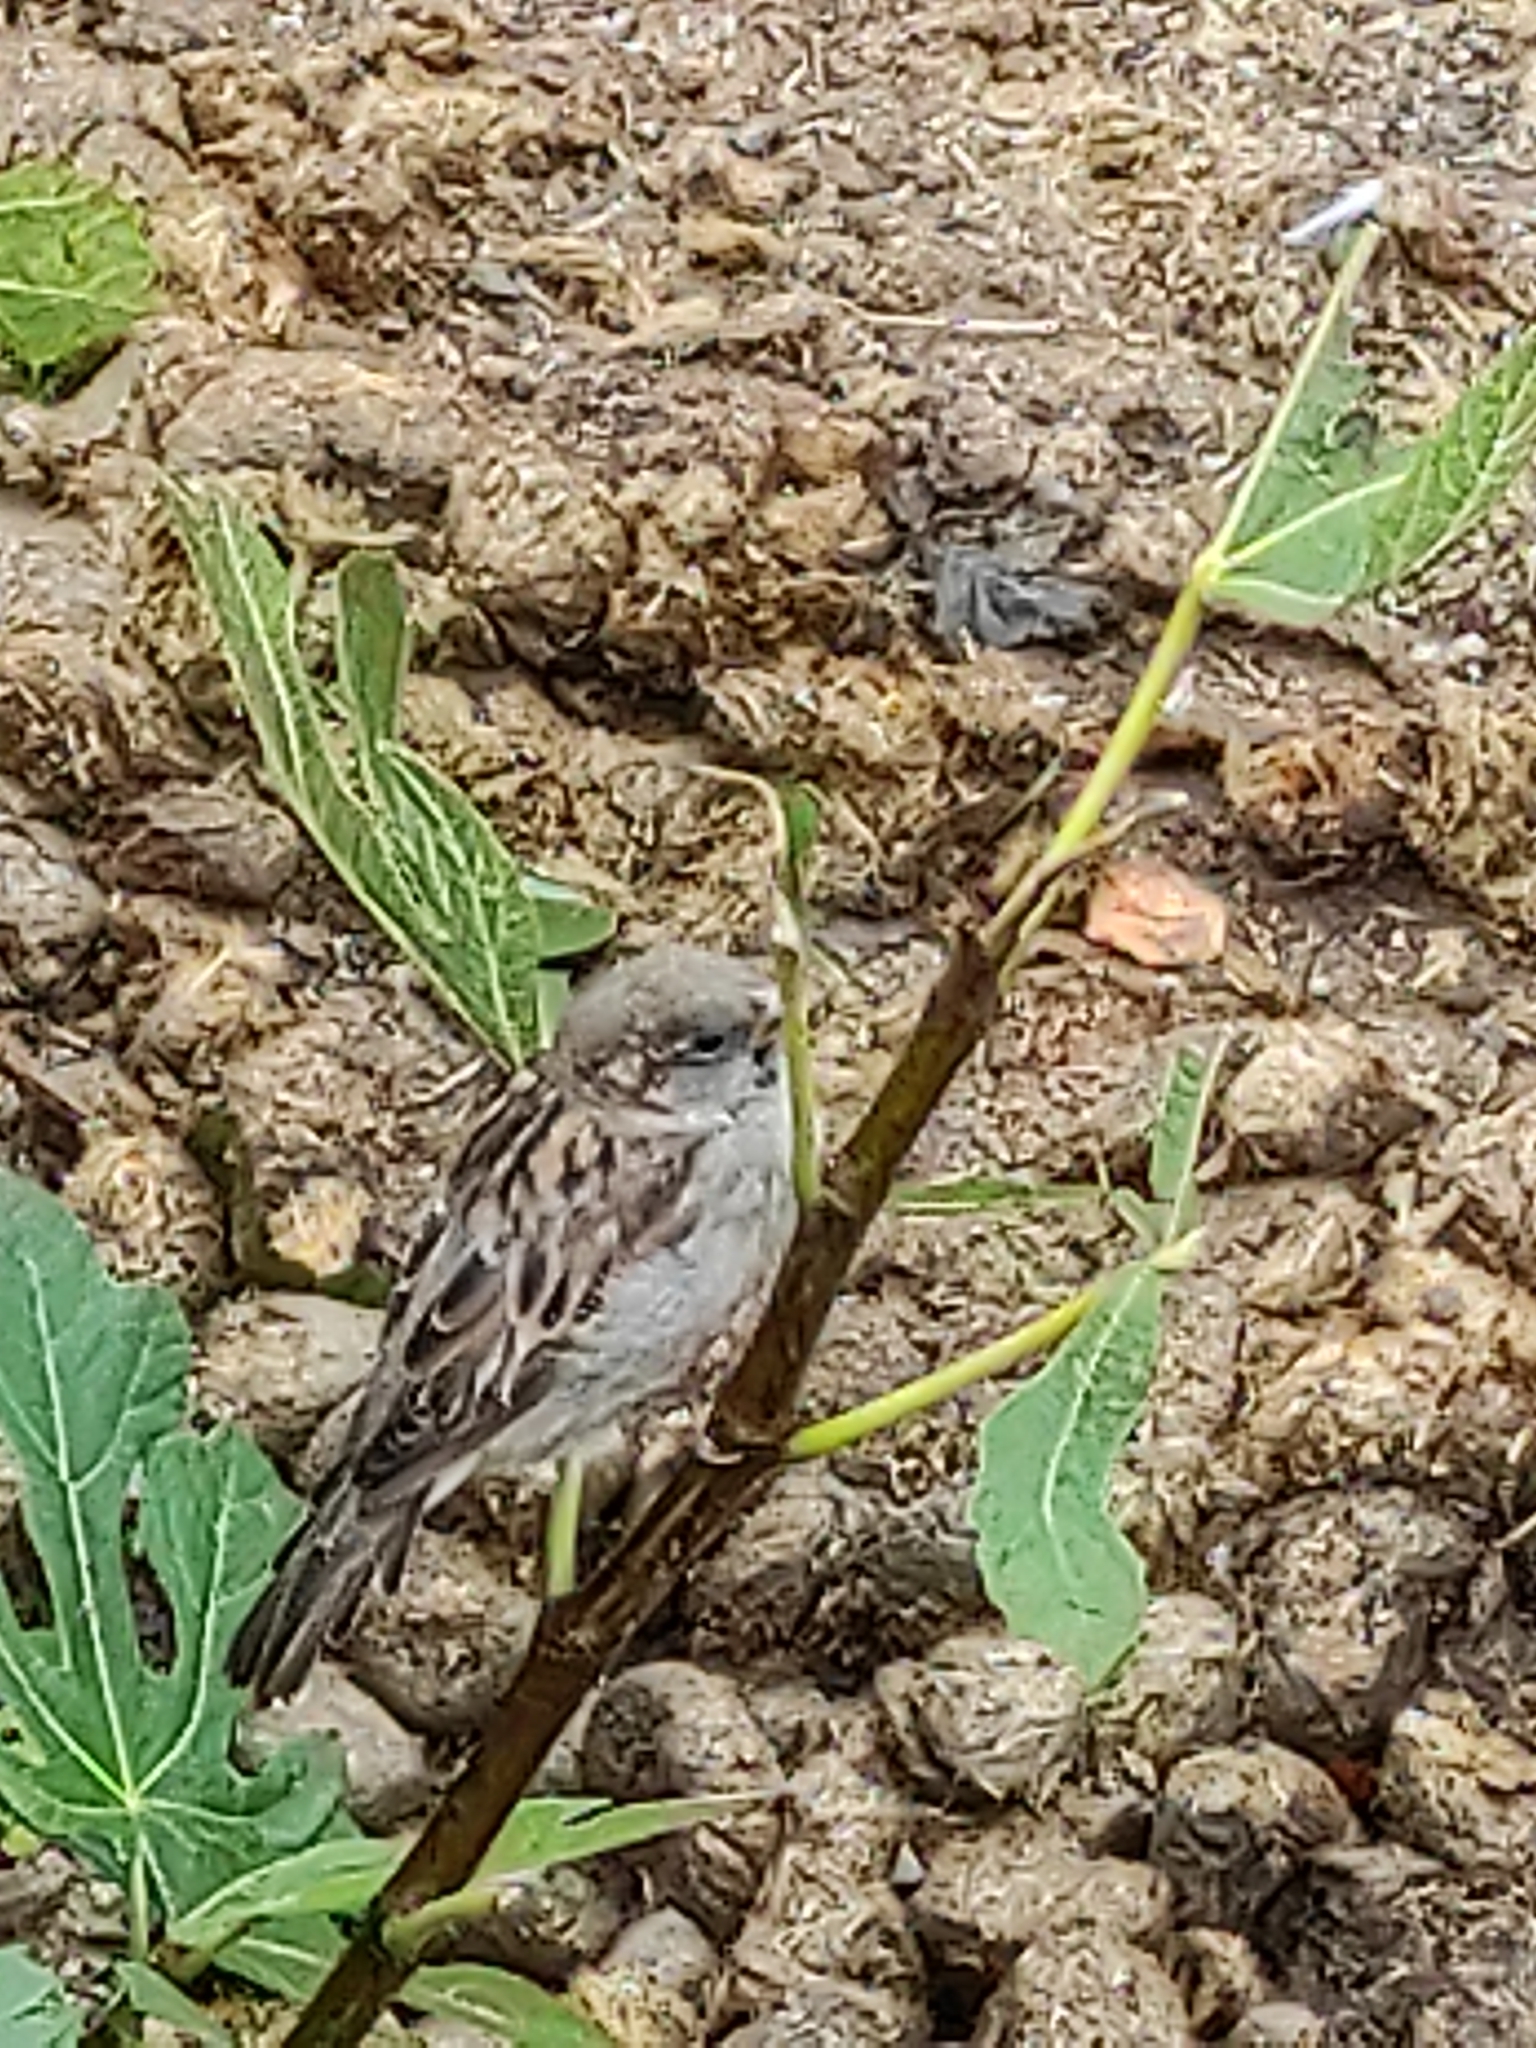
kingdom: Animalia
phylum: Chordata
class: Aves
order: Passeriformes
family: Passeridae
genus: Passer
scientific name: Passer domesticus
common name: House sparrow
